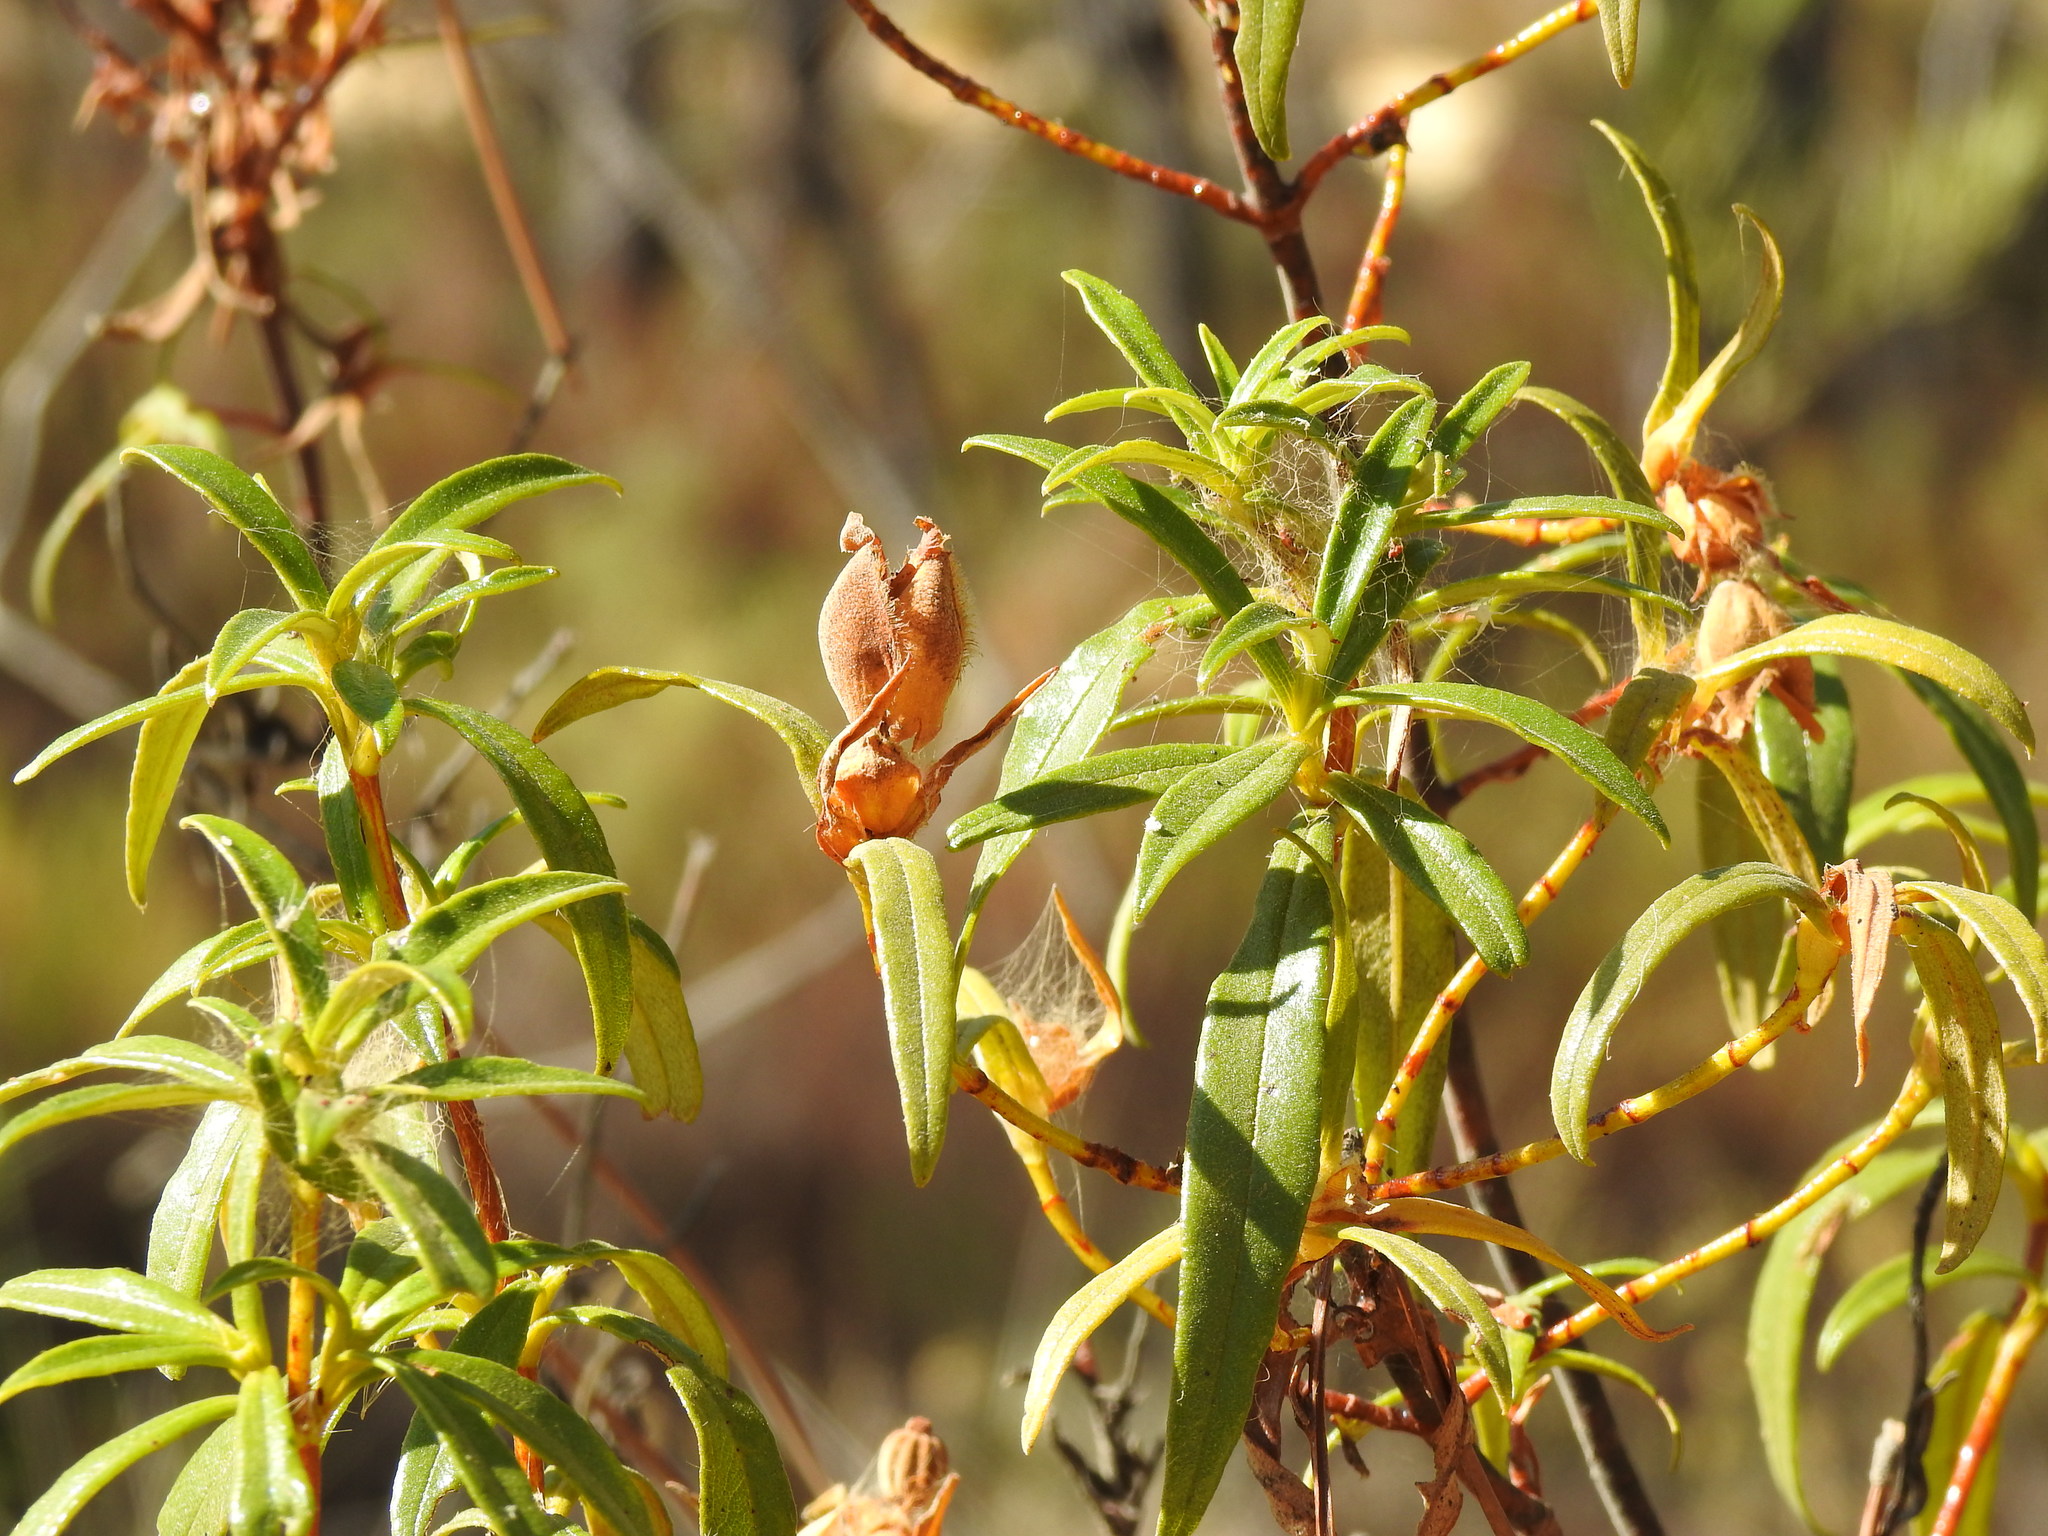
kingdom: Plantae
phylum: Tracheophyta
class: Magnoliopsida
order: Malvales
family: Cistaceae
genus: Cistus
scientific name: Cistus ladanifer
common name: Common gum cistus
